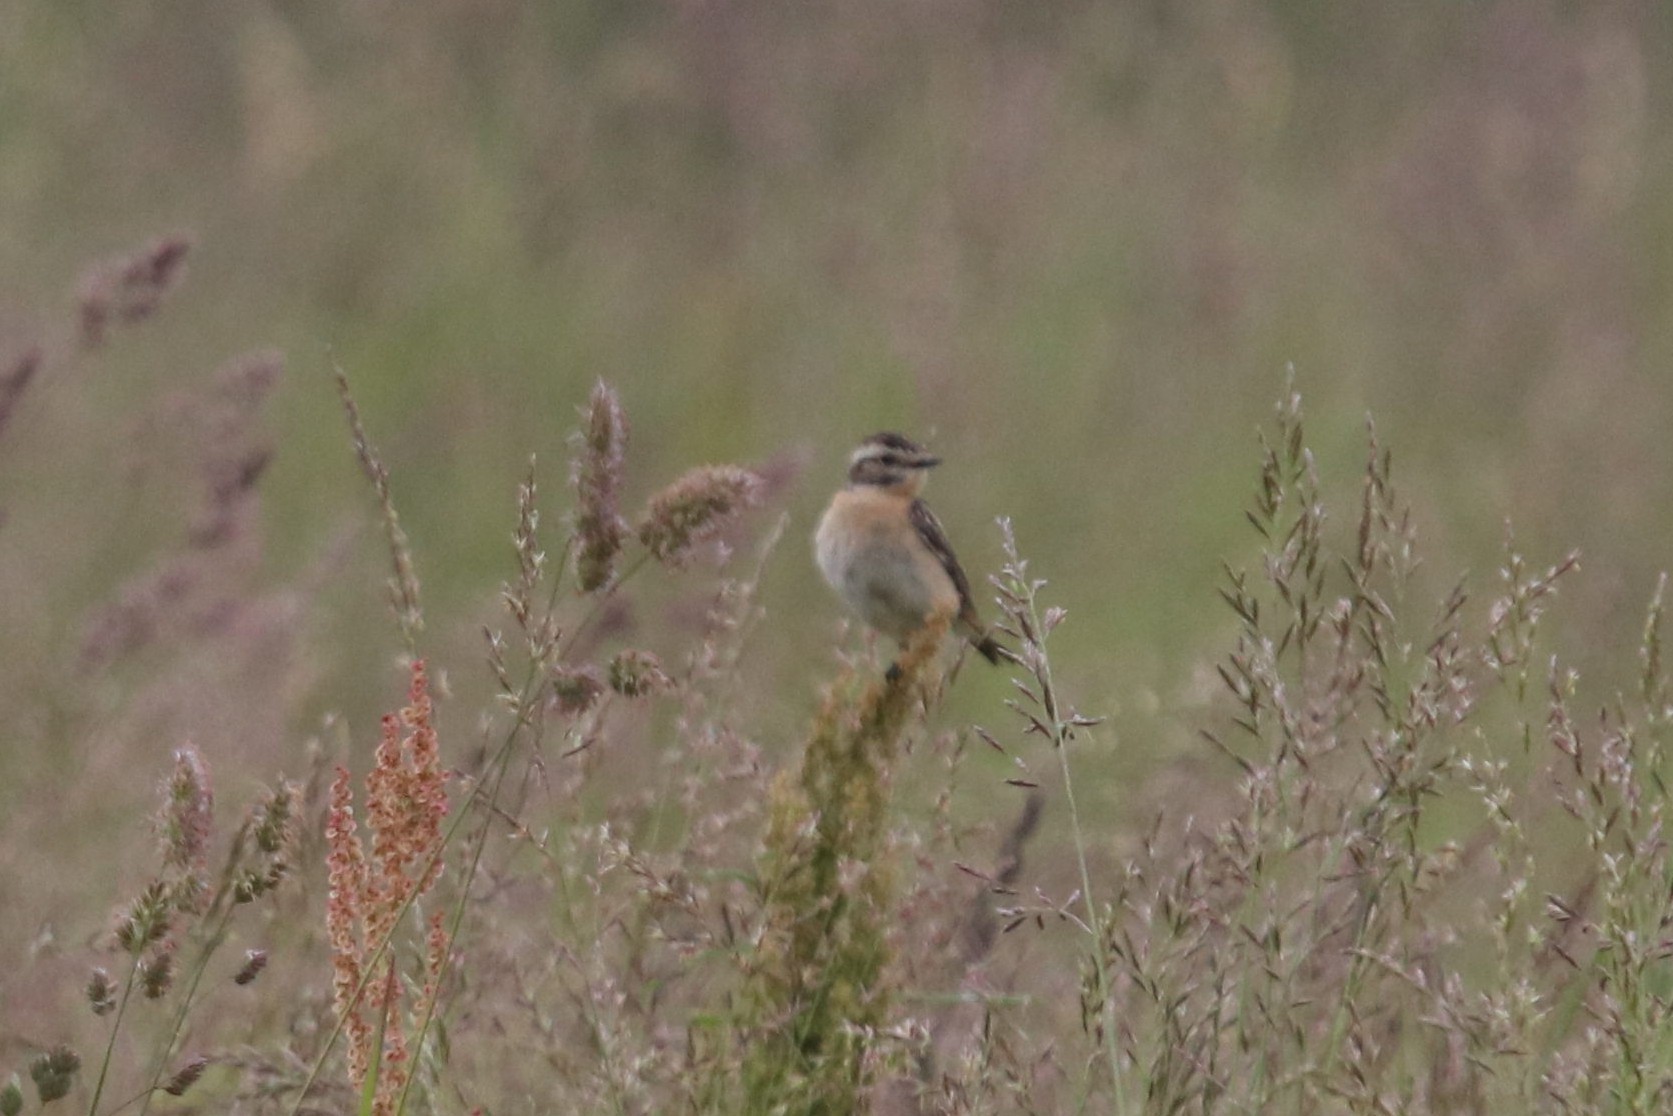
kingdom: Animalia
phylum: Chordata
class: Aves
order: Passeriformes
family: Muscicapidae
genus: Saxicola
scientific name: Saxicola rubetra
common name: Whinchat
